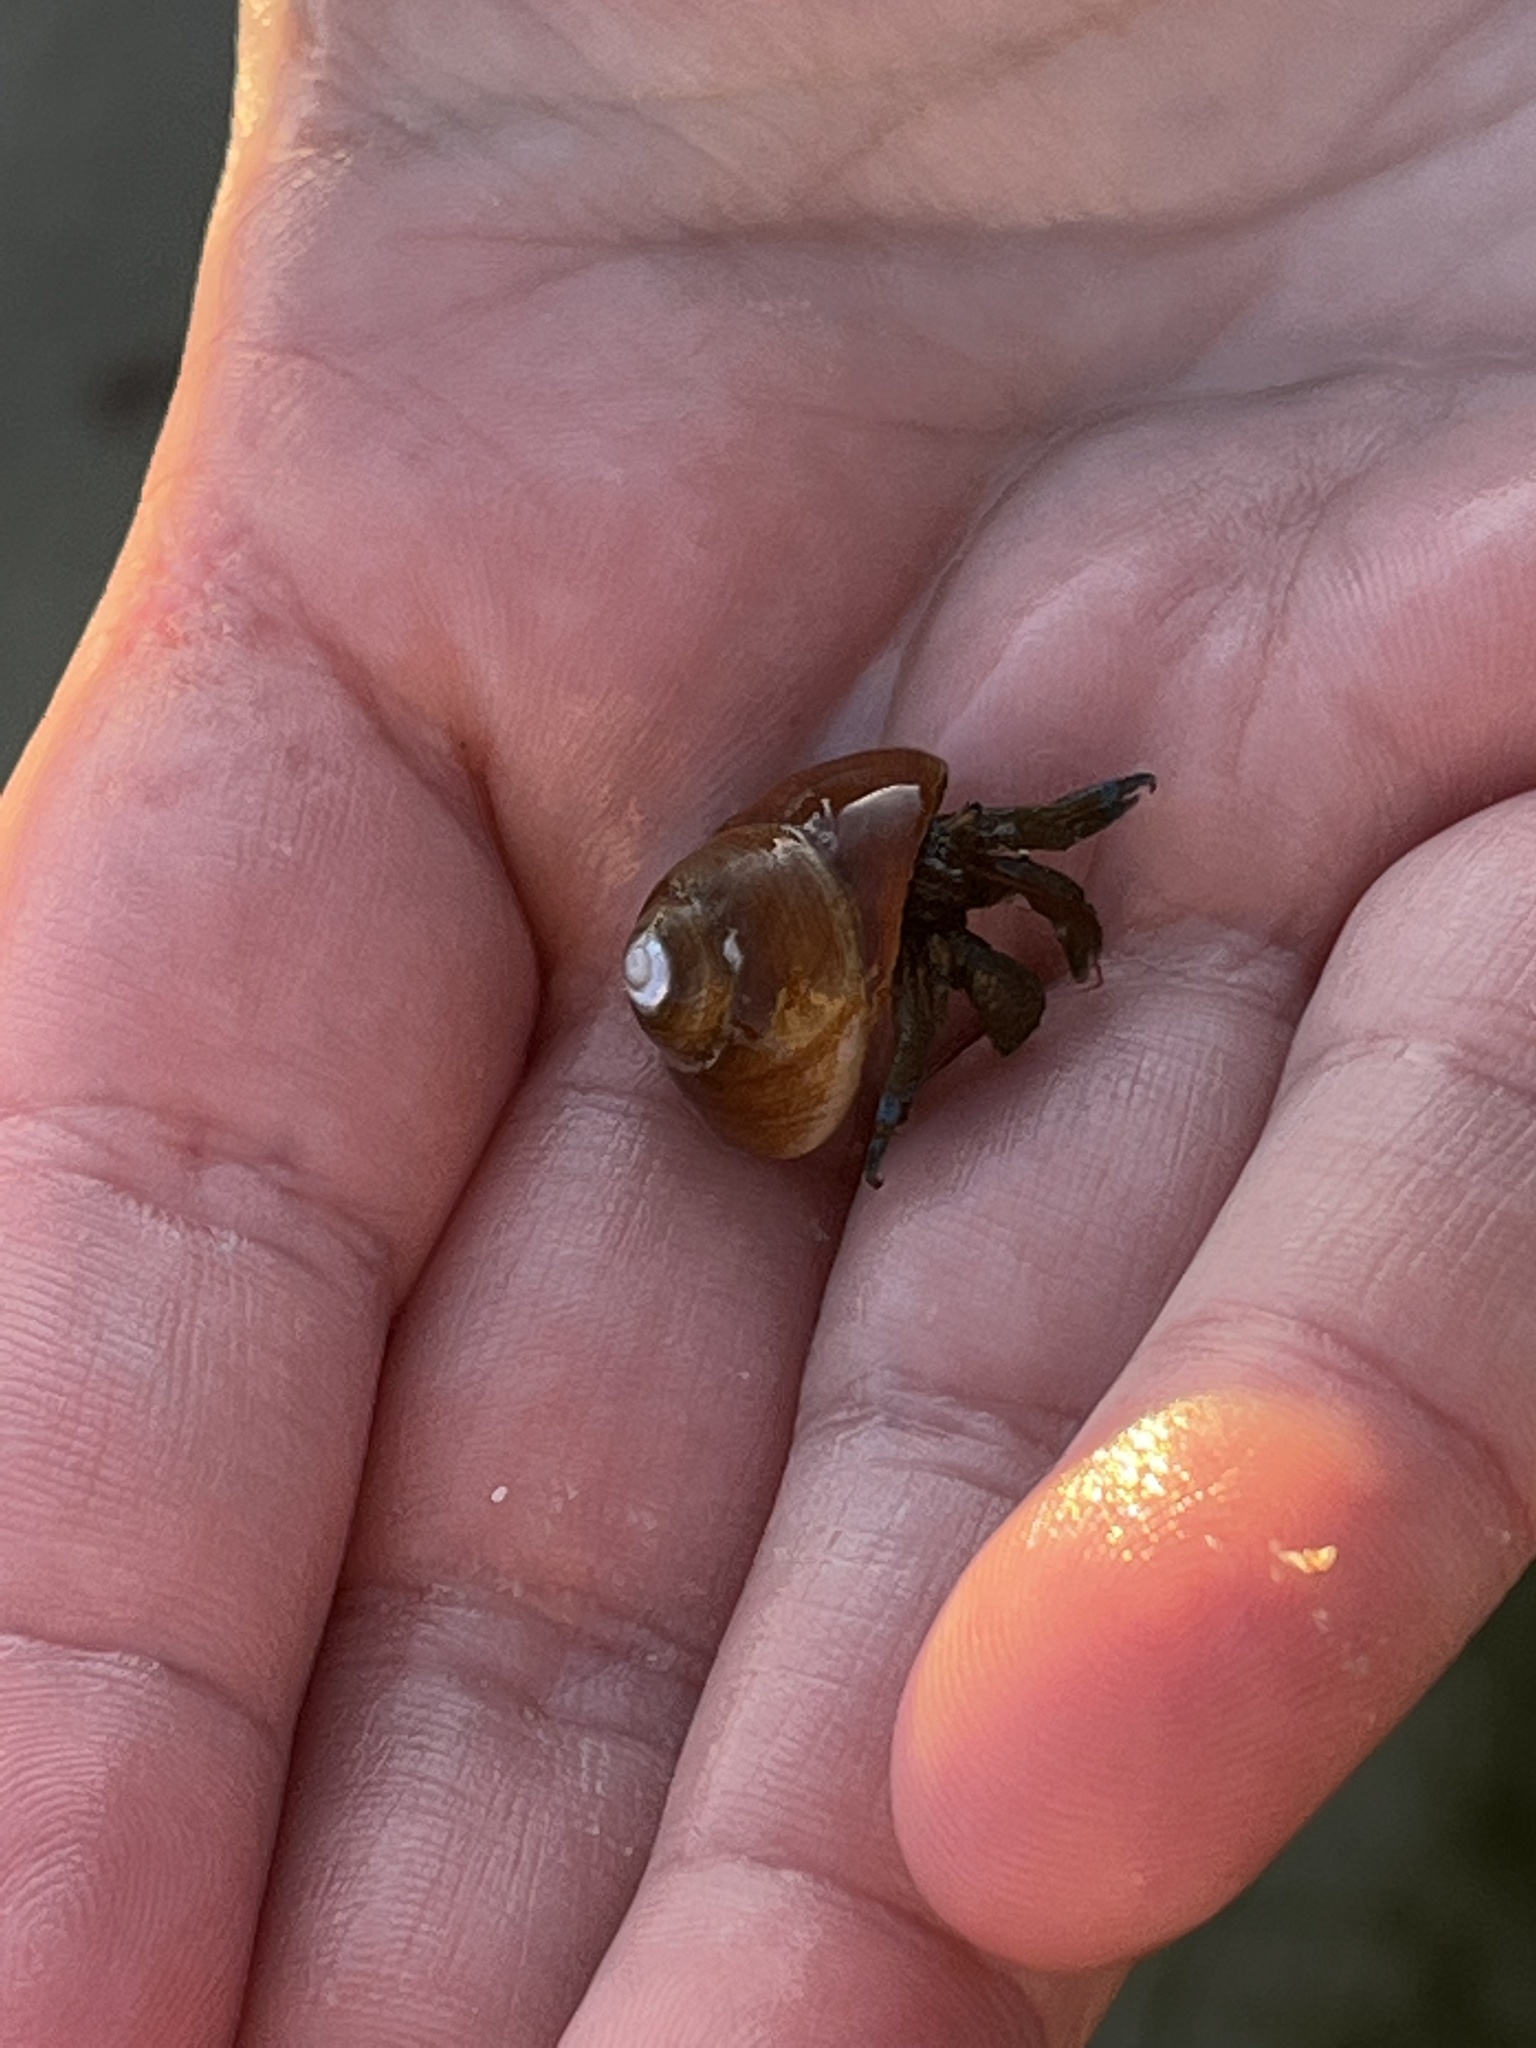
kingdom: Animalia
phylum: Arthropoda
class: Malacostraca
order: Decapoda
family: Paguridae
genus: Pagurus
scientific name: Pagurus samuelis
